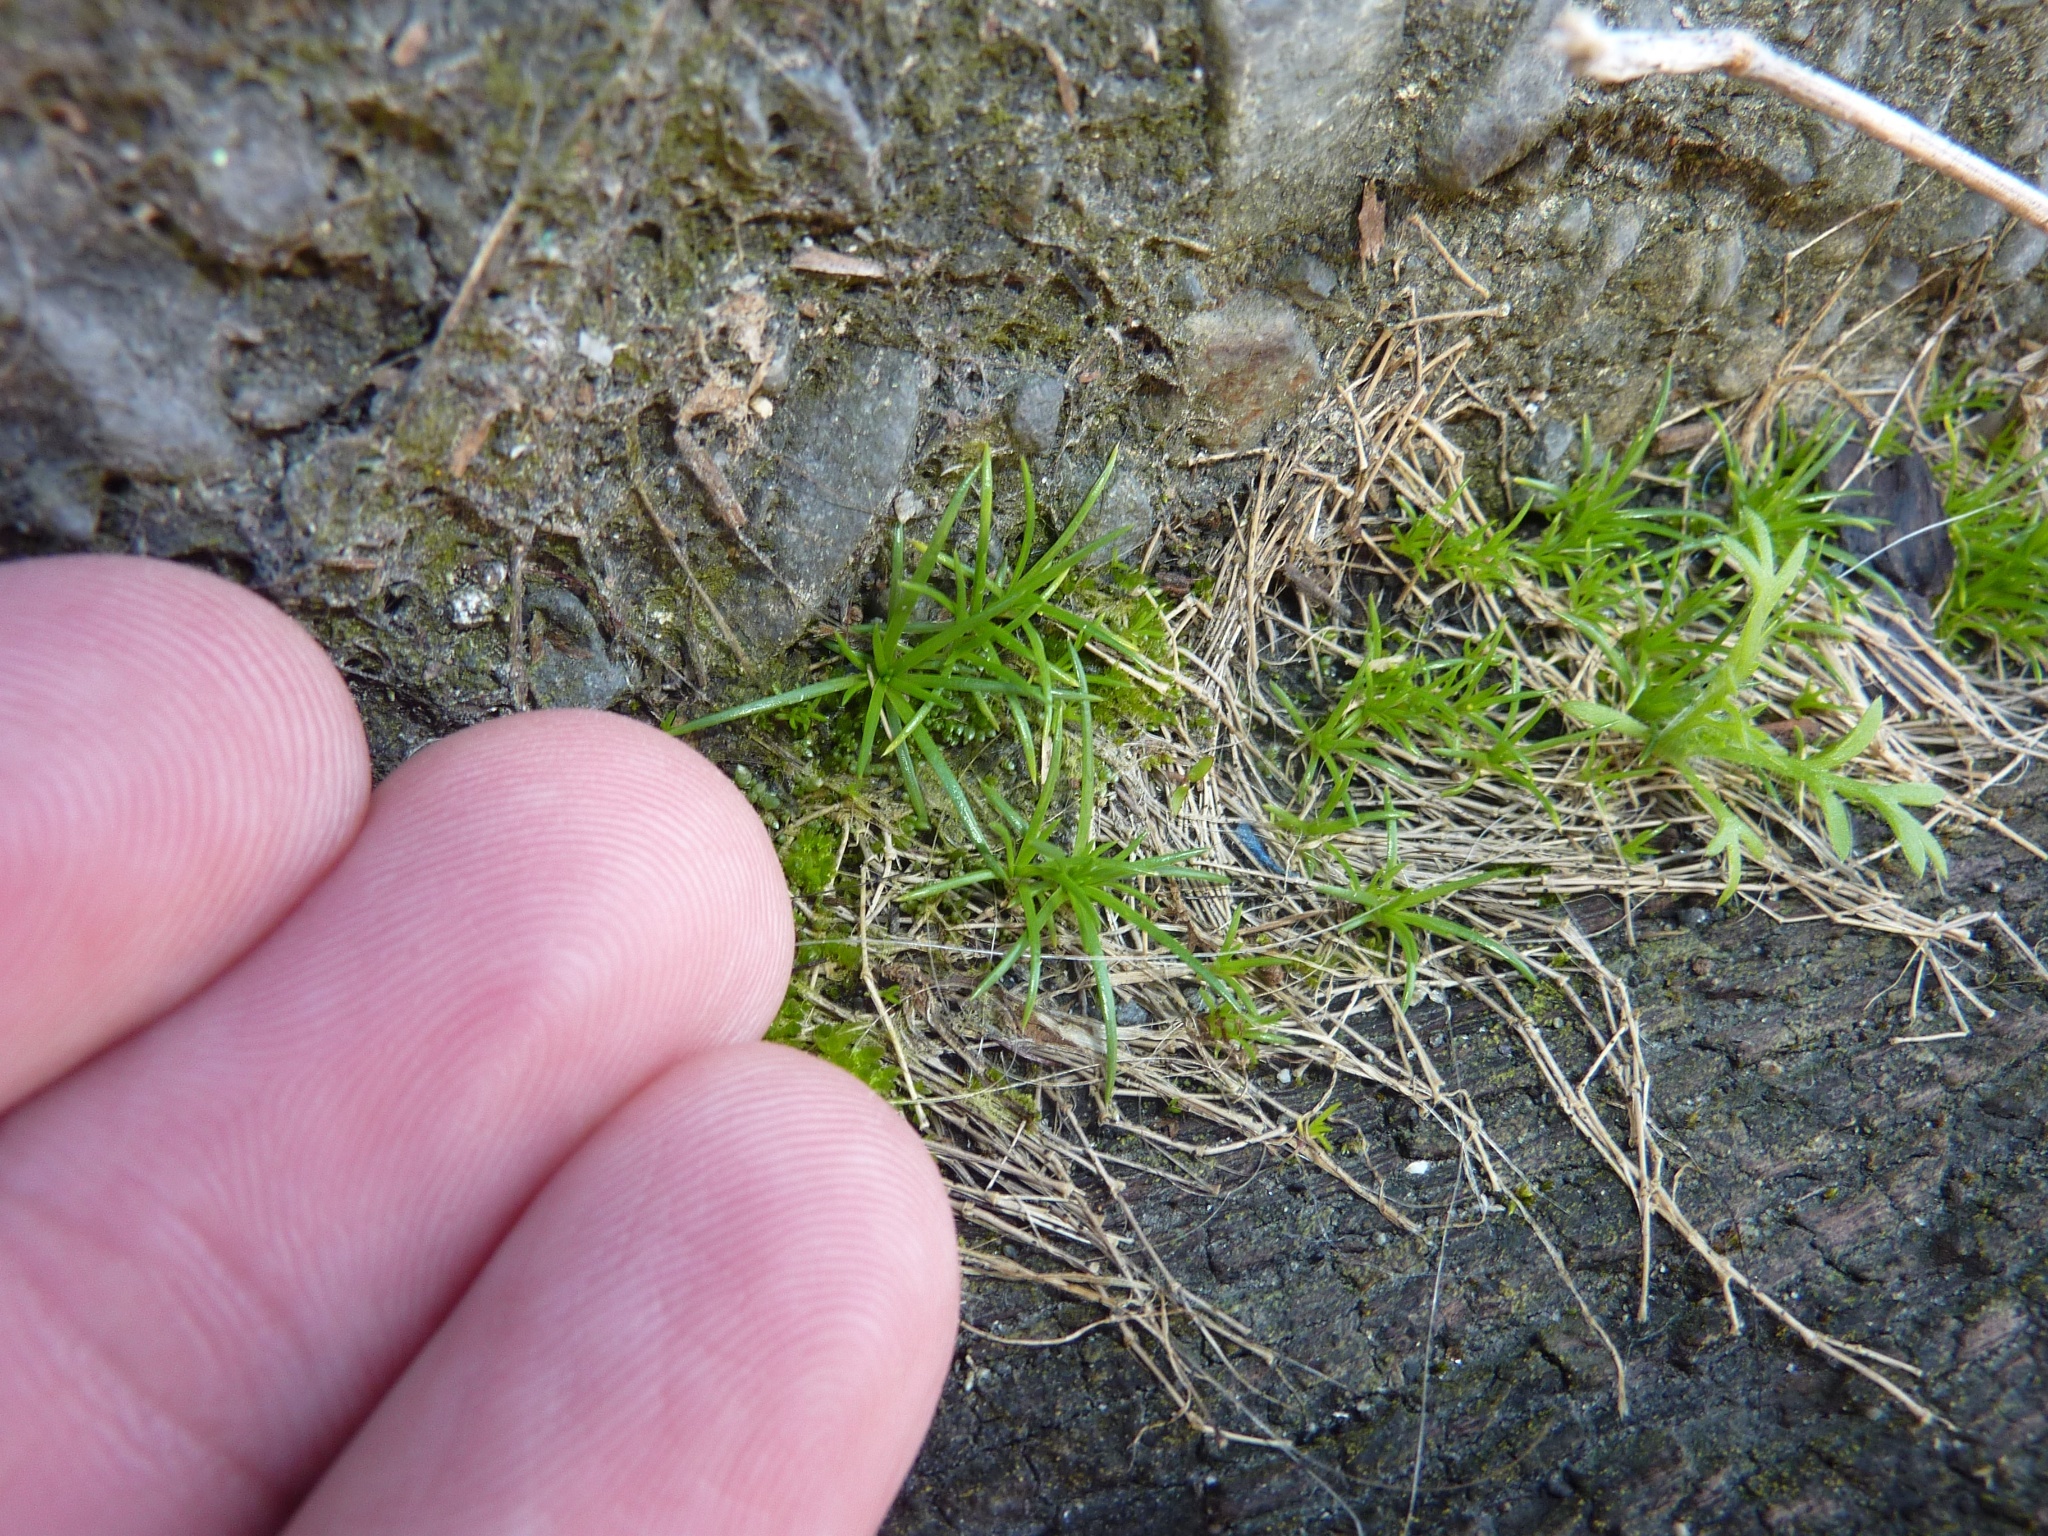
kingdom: Plantae
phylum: Tracheophyta
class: Magnoliopsida
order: Caryophyllales
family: Caryophyllaceae
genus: Sagina
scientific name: Sagina procumbens
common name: Procumbent pearlwort
